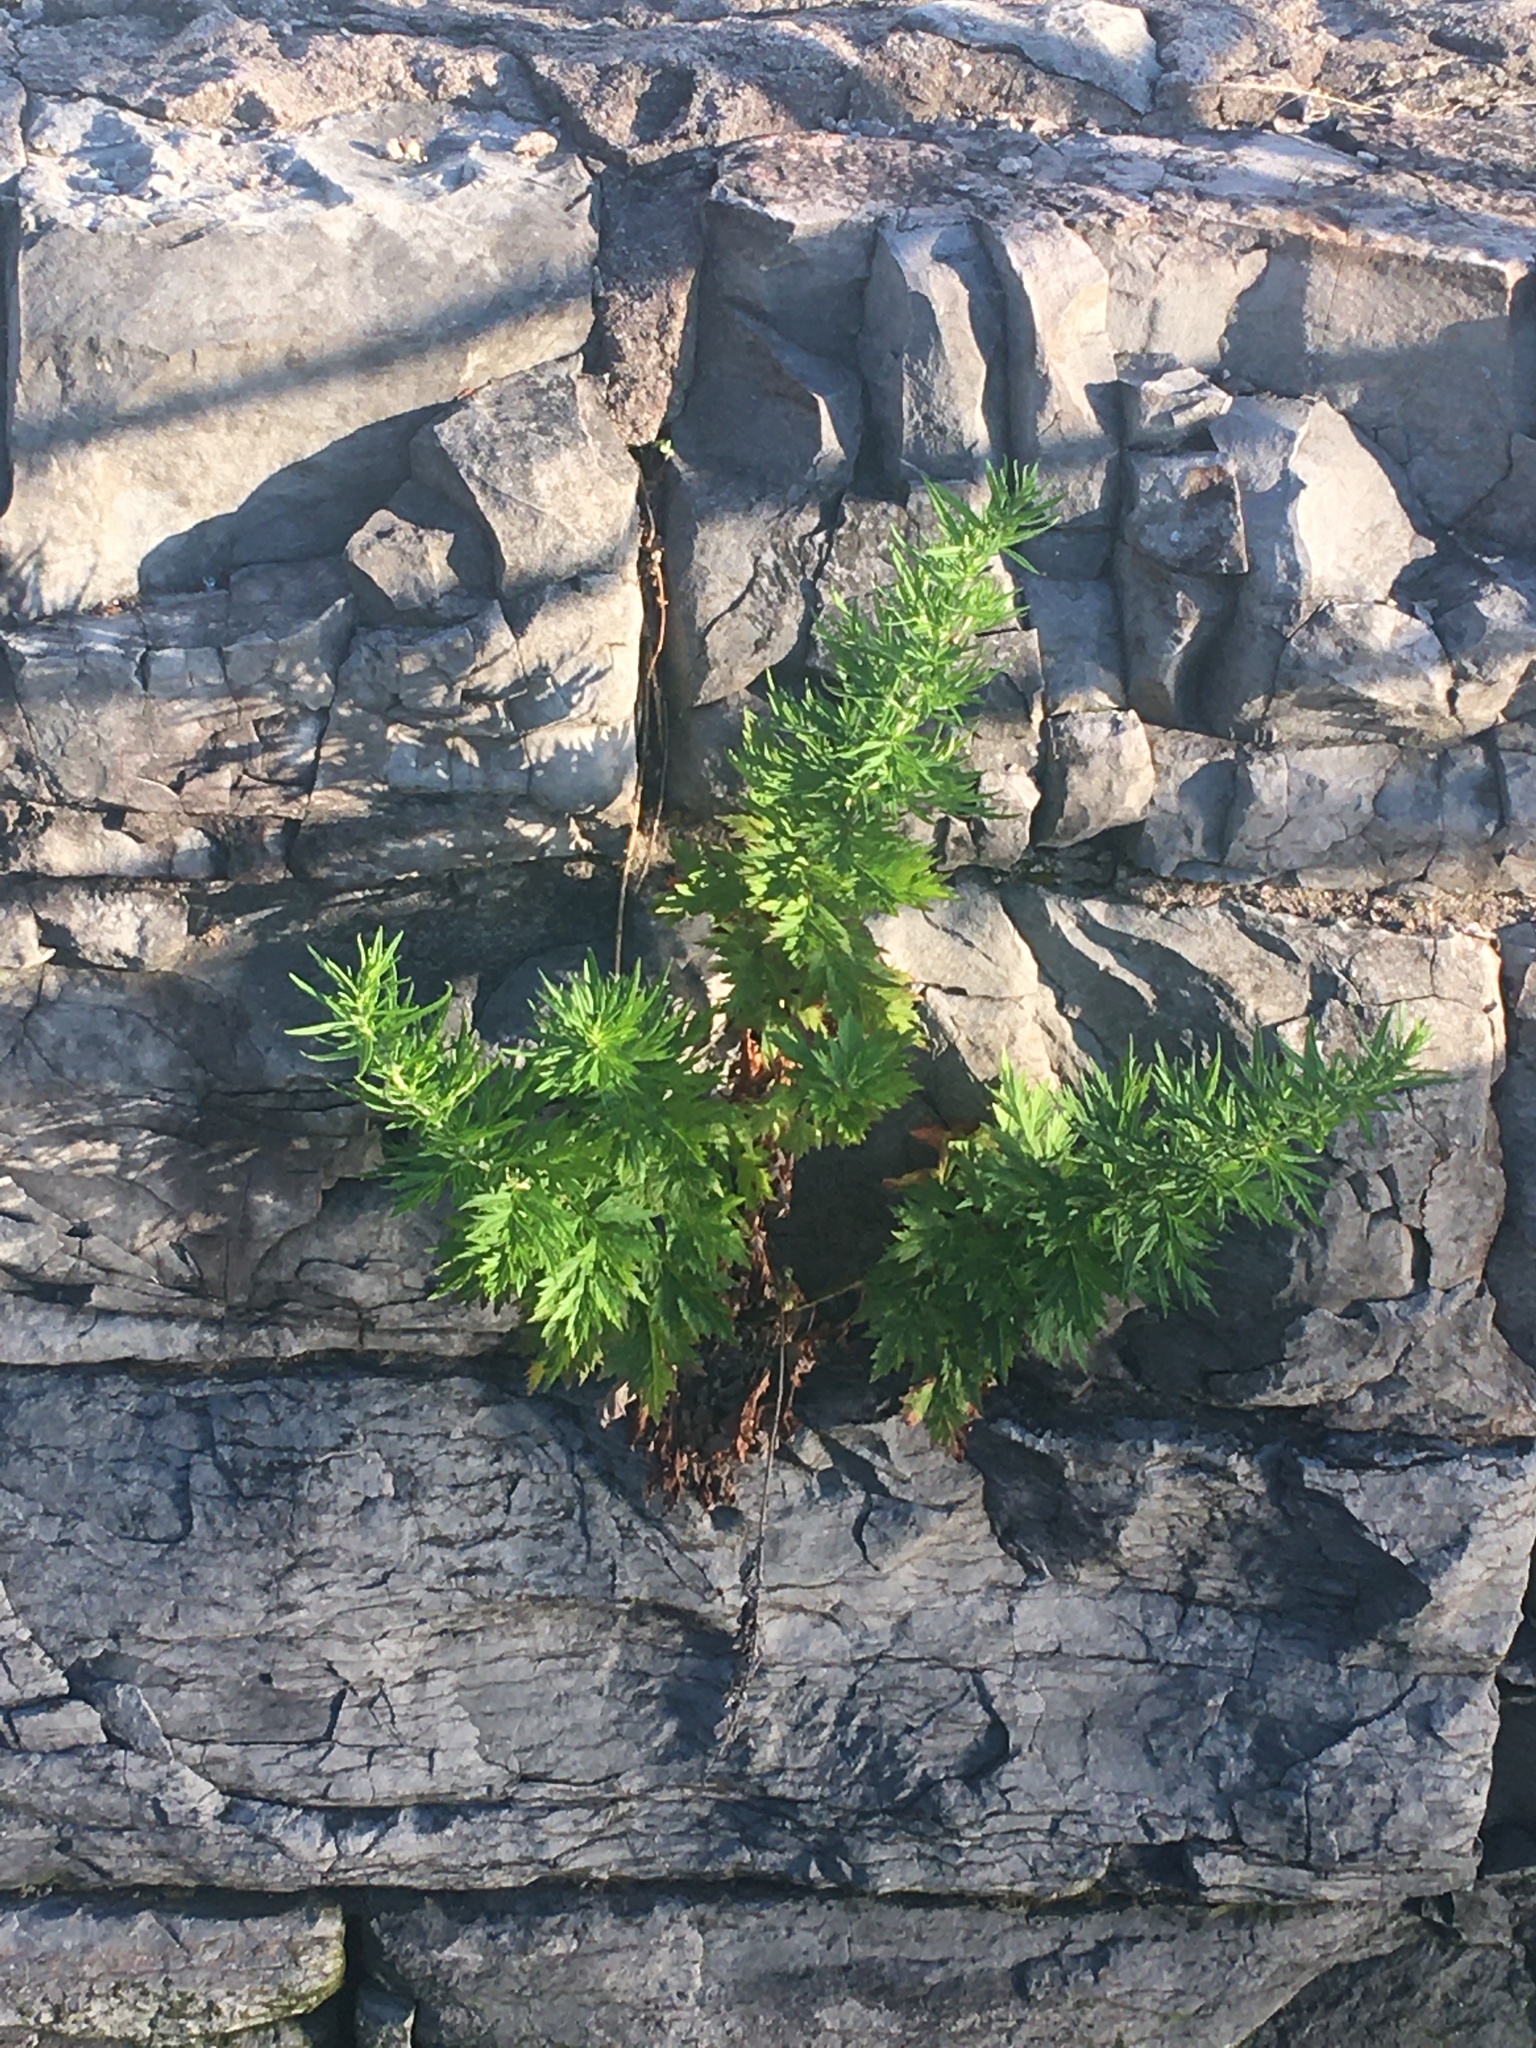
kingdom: Plantae
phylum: Tracheophyta
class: Magnoliopsida
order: Asterales
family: Asteraceae
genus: Artemisia
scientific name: Artemisia vulgaris
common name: Mugwort
